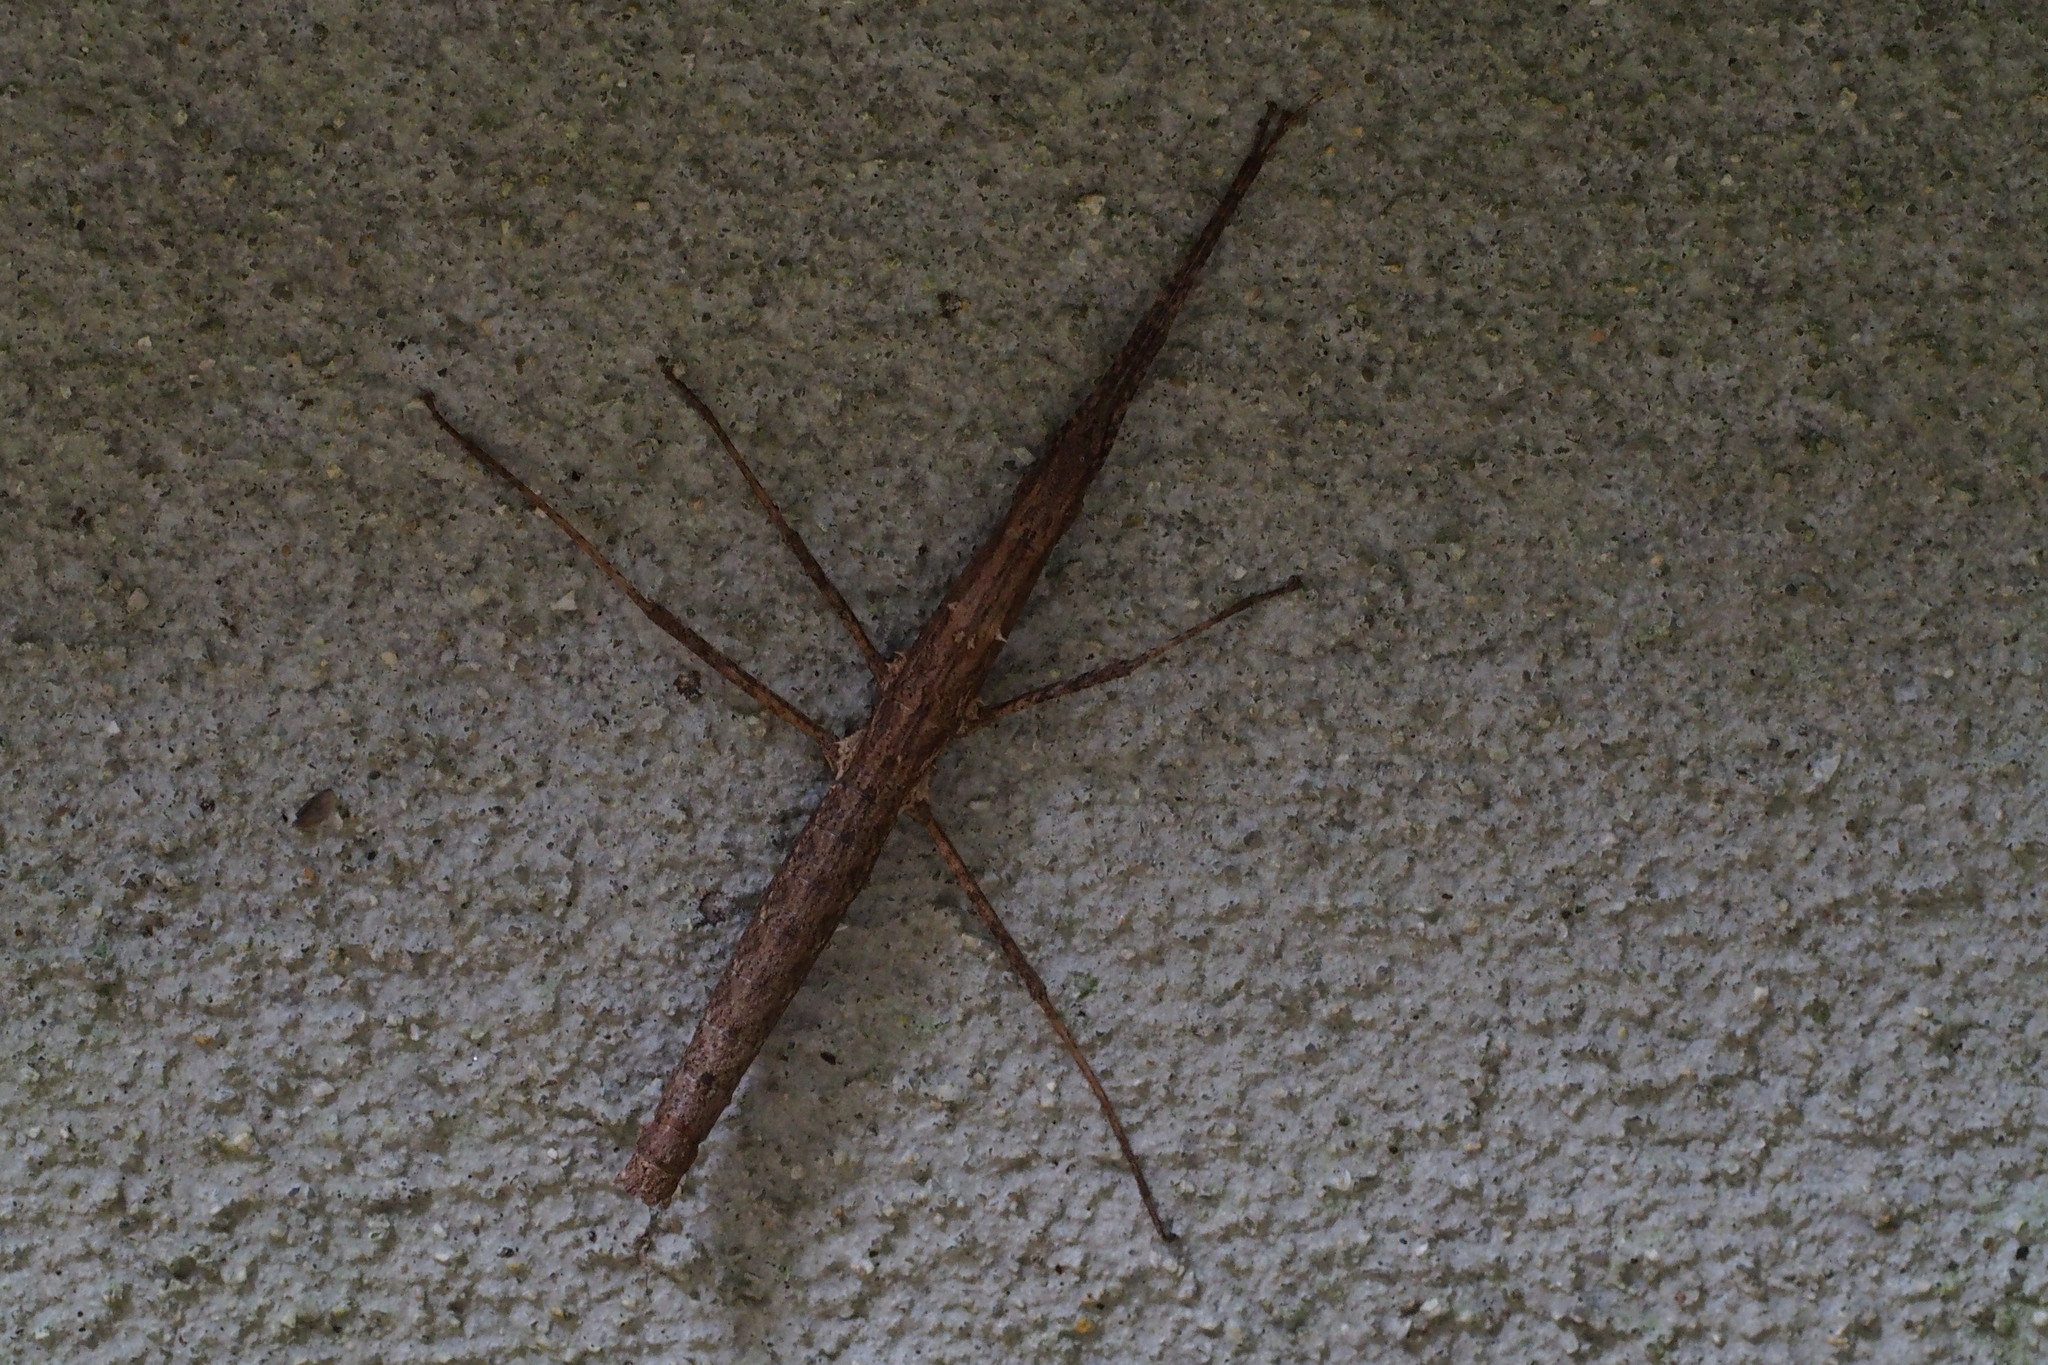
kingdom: Animalia
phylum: Arthropoda
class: Insecta
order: Phasmida
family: Lonchodidae
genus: Neohirasea
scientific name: Neohirasea japonica
